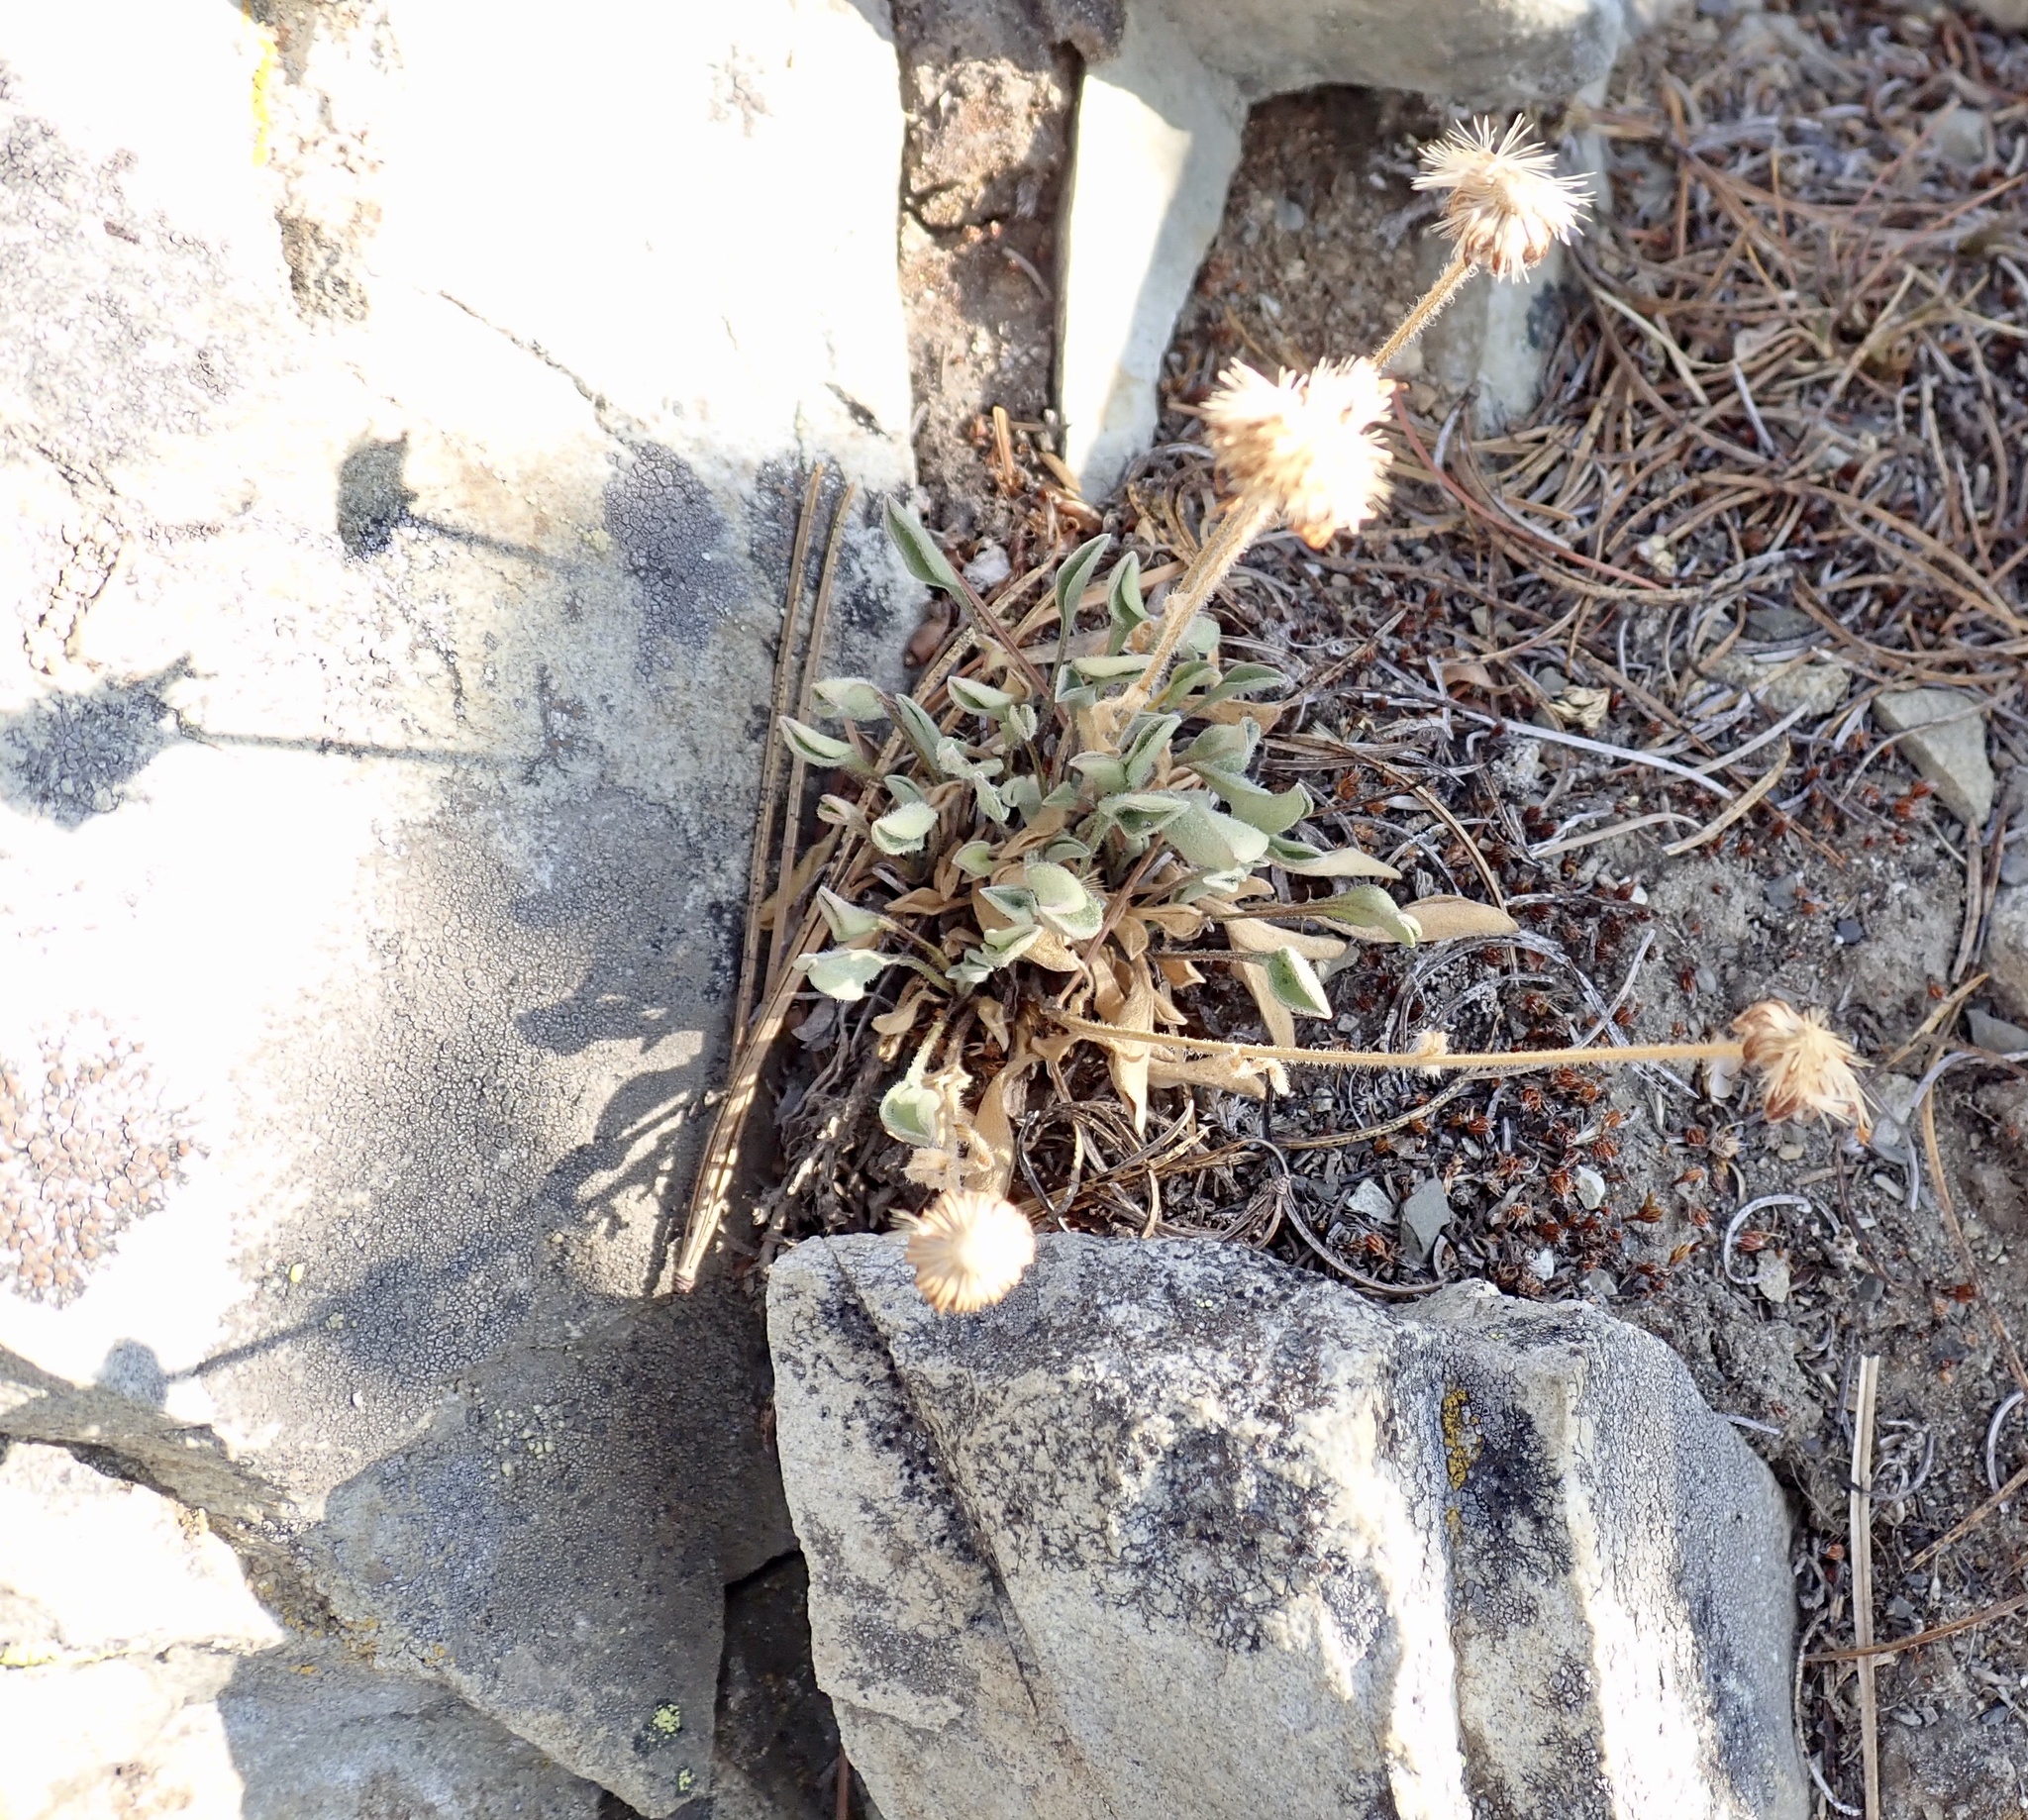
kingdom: Plantae
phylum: Tracheophyta
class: Magnoliopsida
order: Asterales
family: Asteraceae
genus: Erigeron
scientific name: Erigeron aureus
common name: Alpine yellow fleabane
